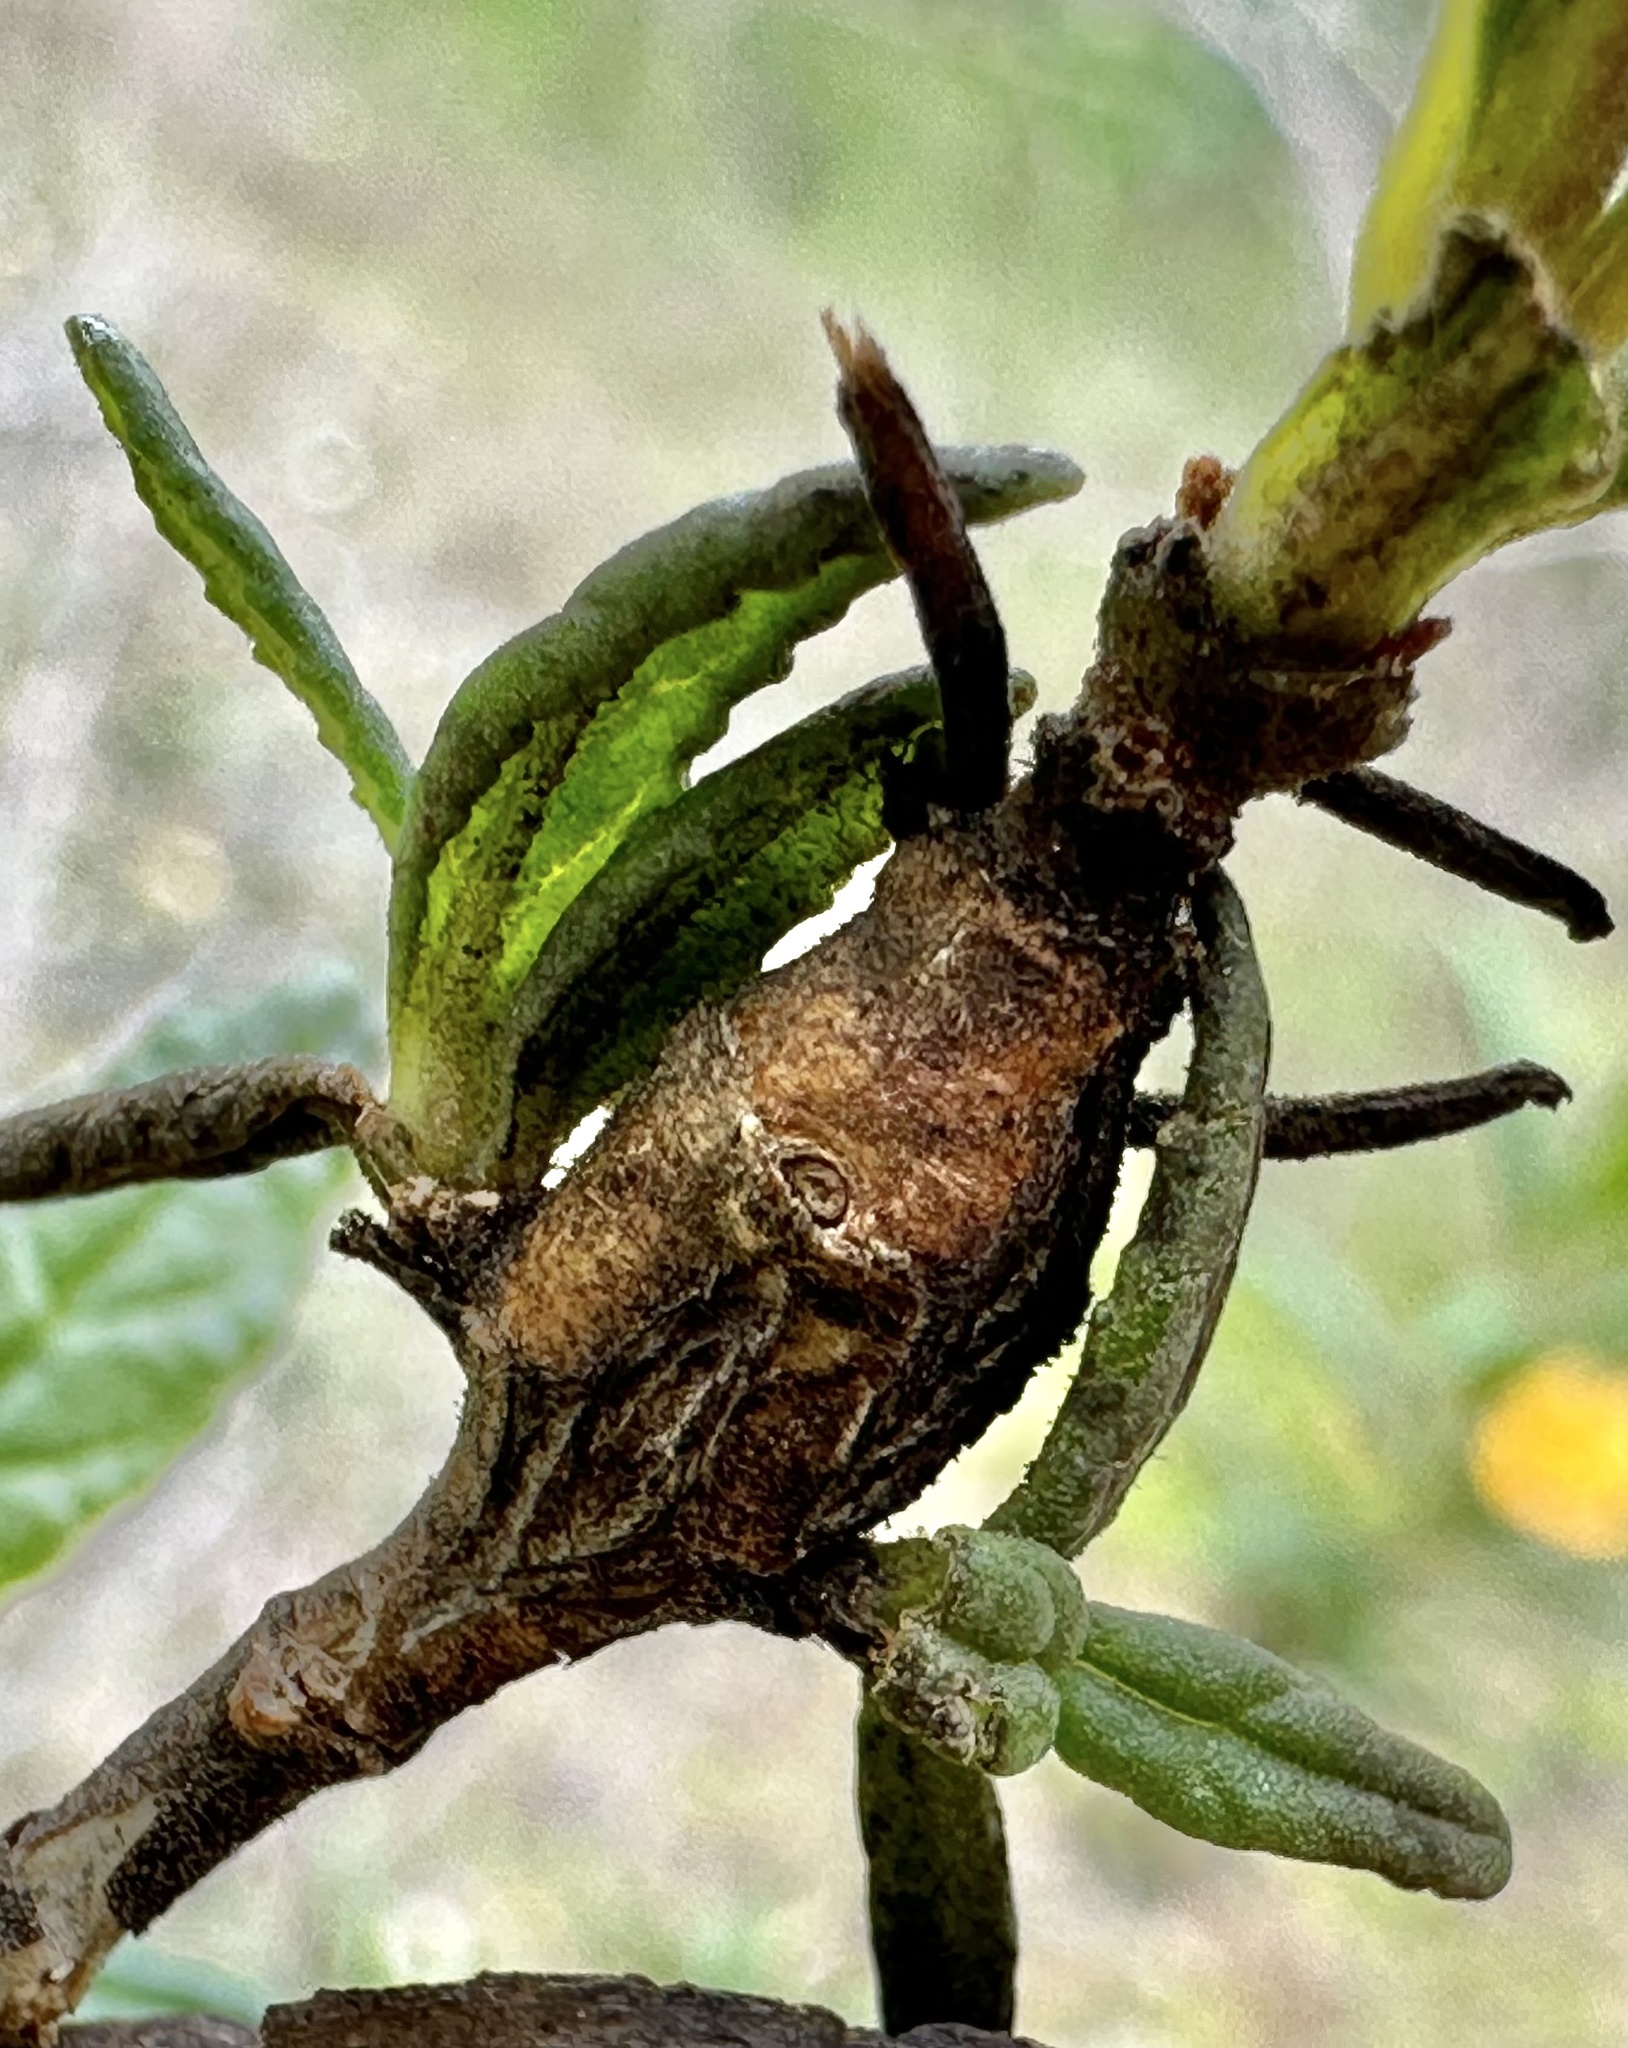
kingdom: Animalia
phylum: Arthropoda
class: Insecta
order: Diptera
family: Cecidomyiidae
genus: Neolasioptera
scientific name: Neolasioptera mimuli
